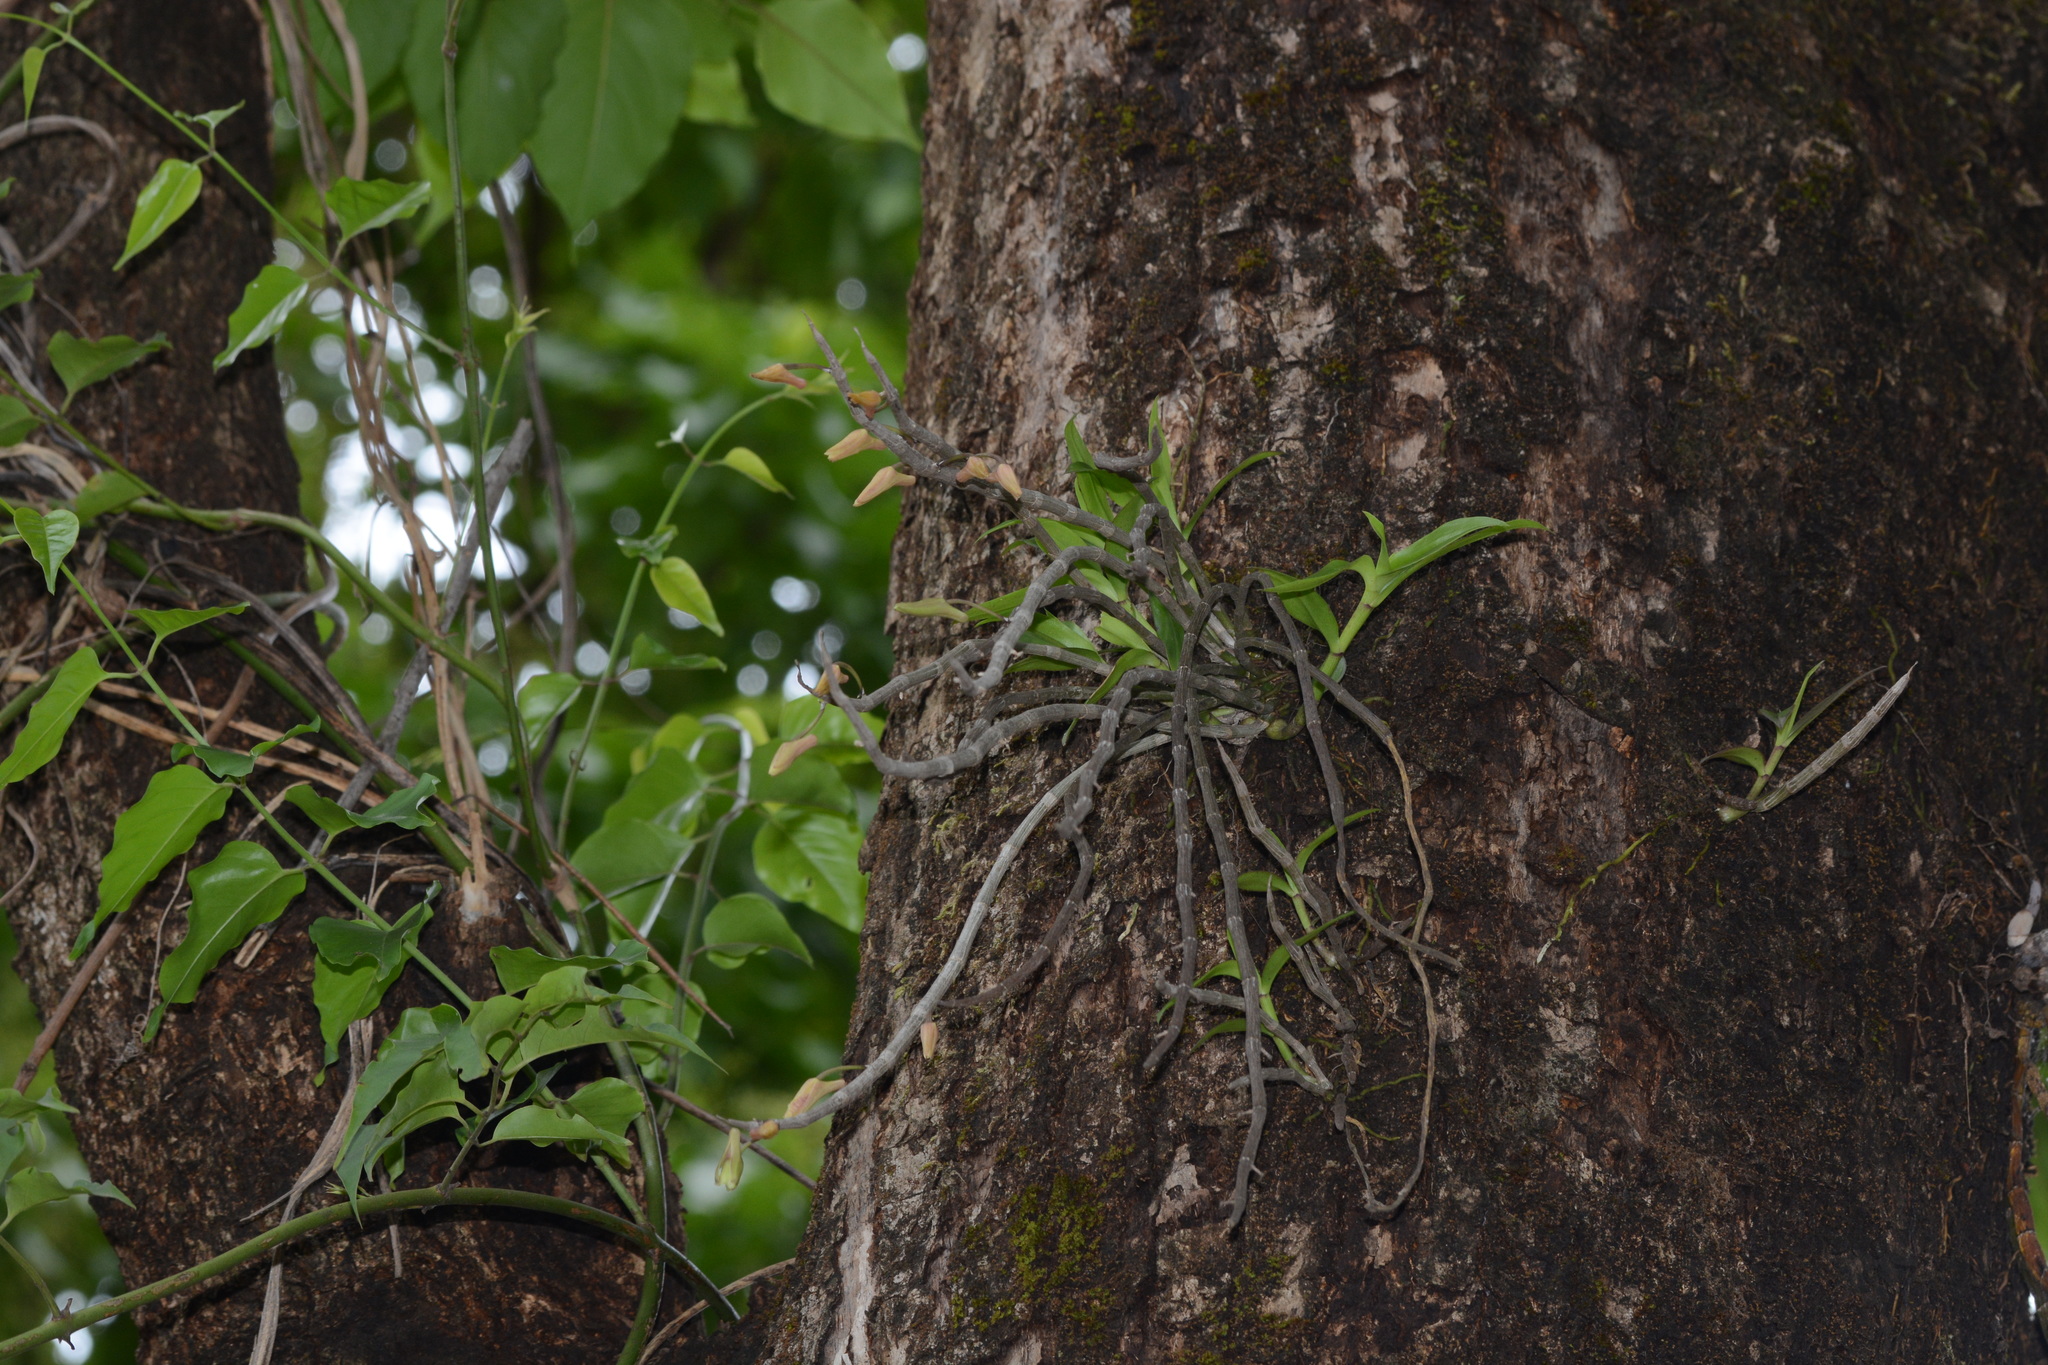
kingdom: Plantae
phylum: Tracheophyta
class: Liliopsida
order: Asparagales
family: Orchidaceae
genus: Dendrobium
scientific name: Dendrobium macrostachyum
